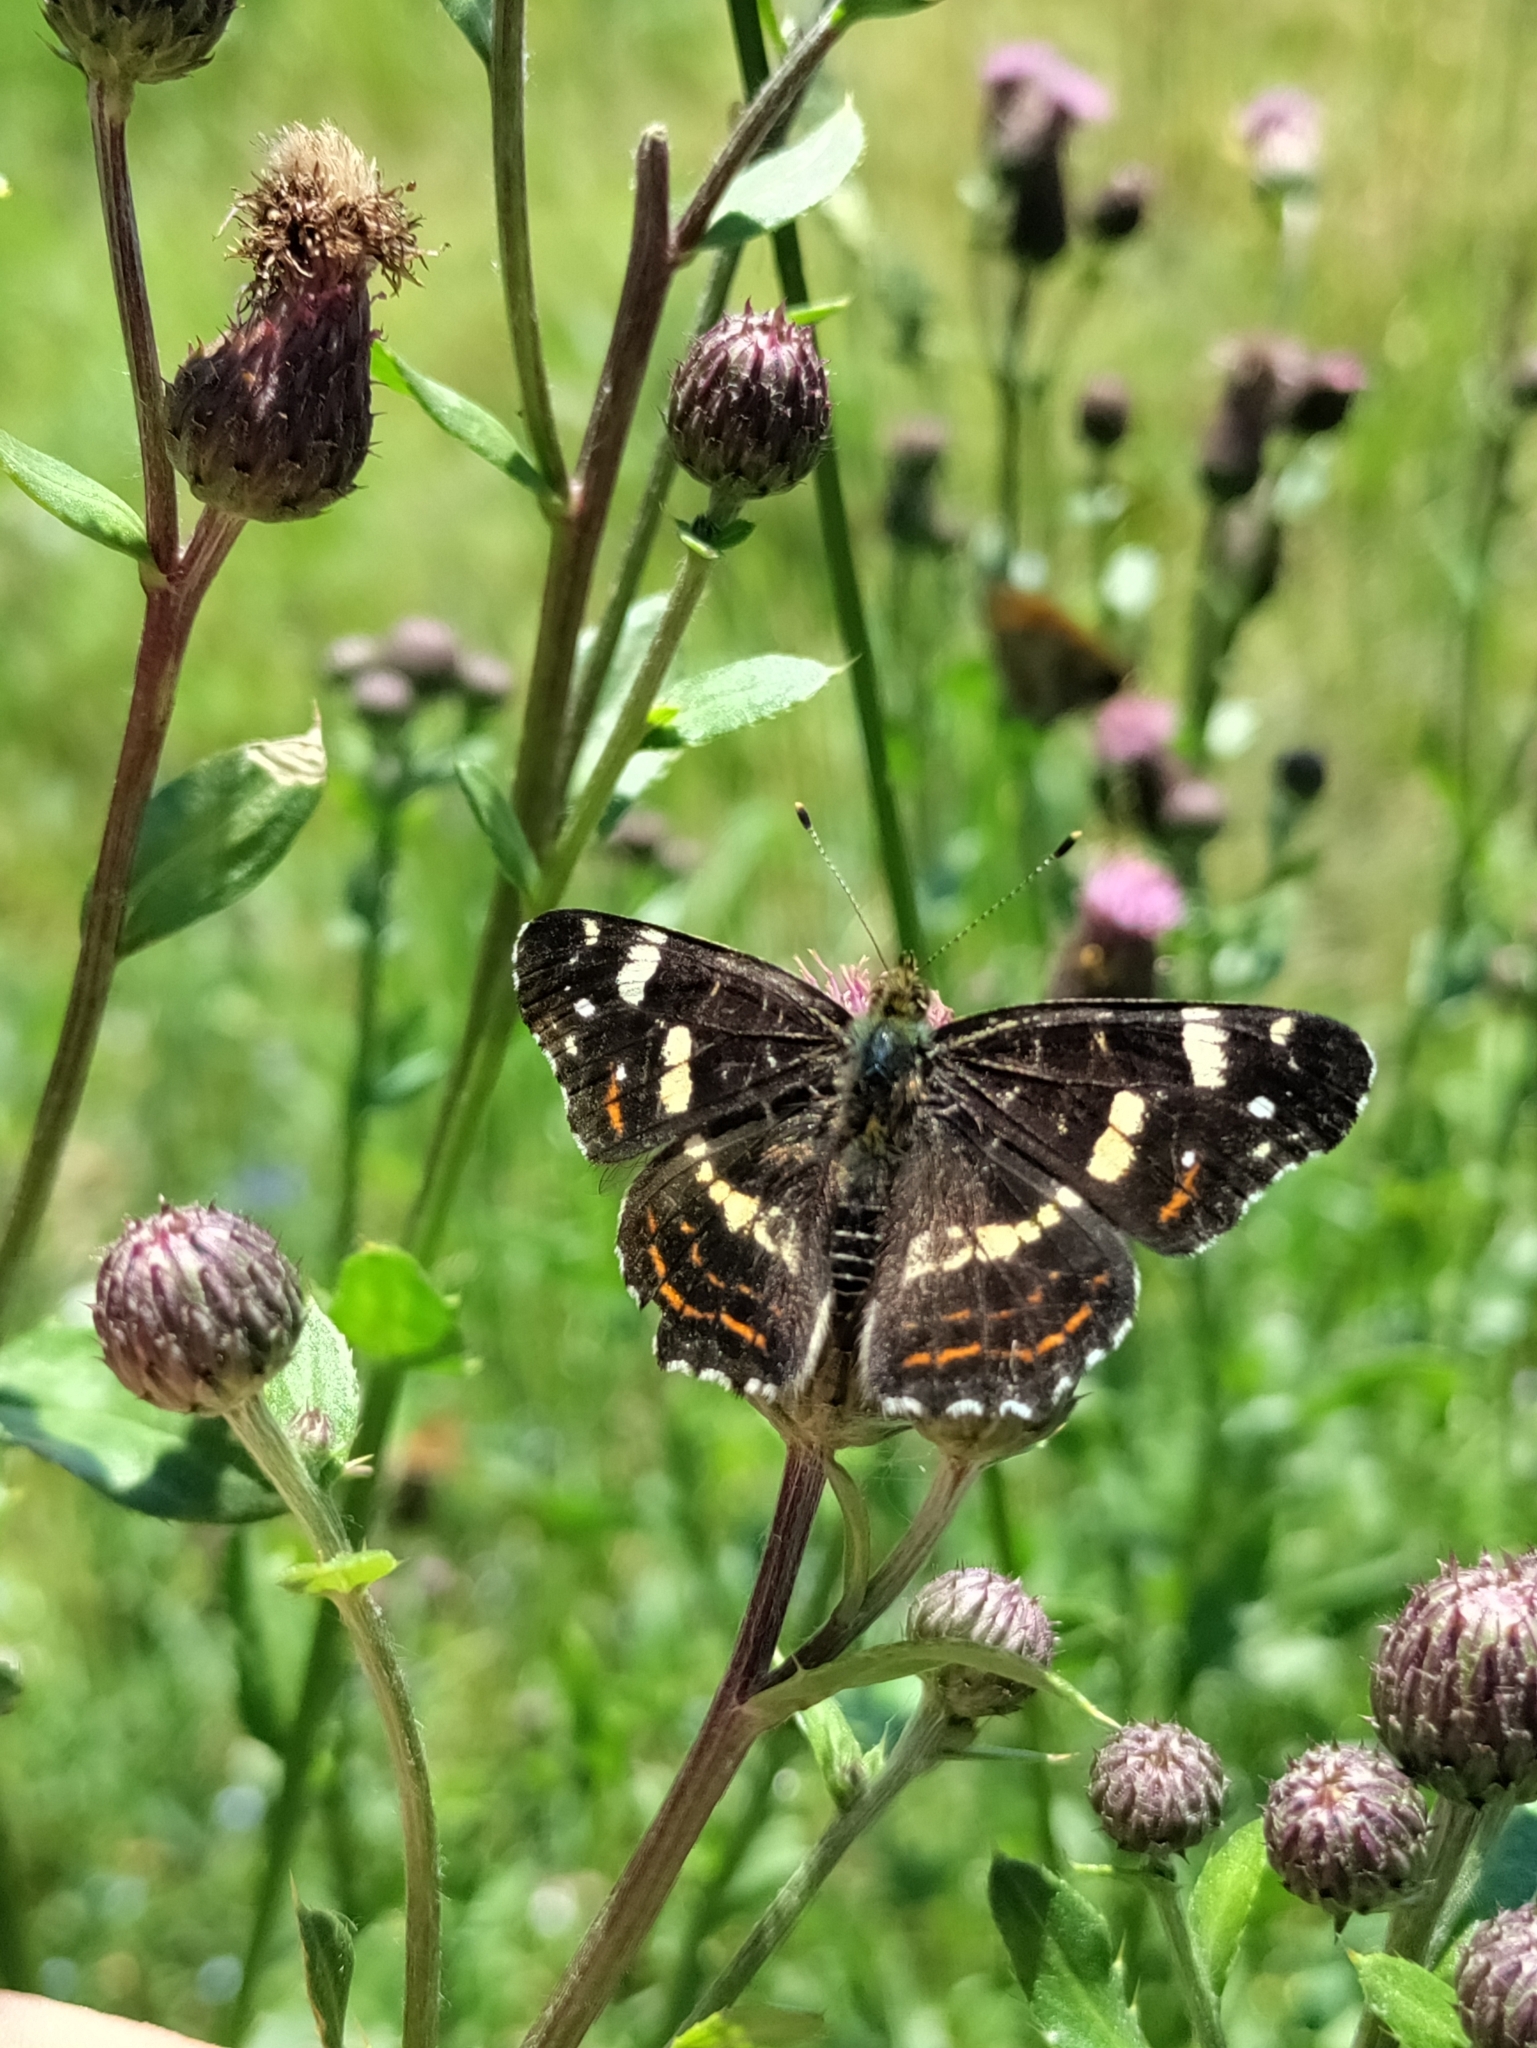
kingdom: Animalia
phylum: Arthropoda
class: Insecta
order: Lepidoptera
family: Nymphalidae
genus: Araschnia
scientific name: Araschnia levana
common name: Map butterfly
